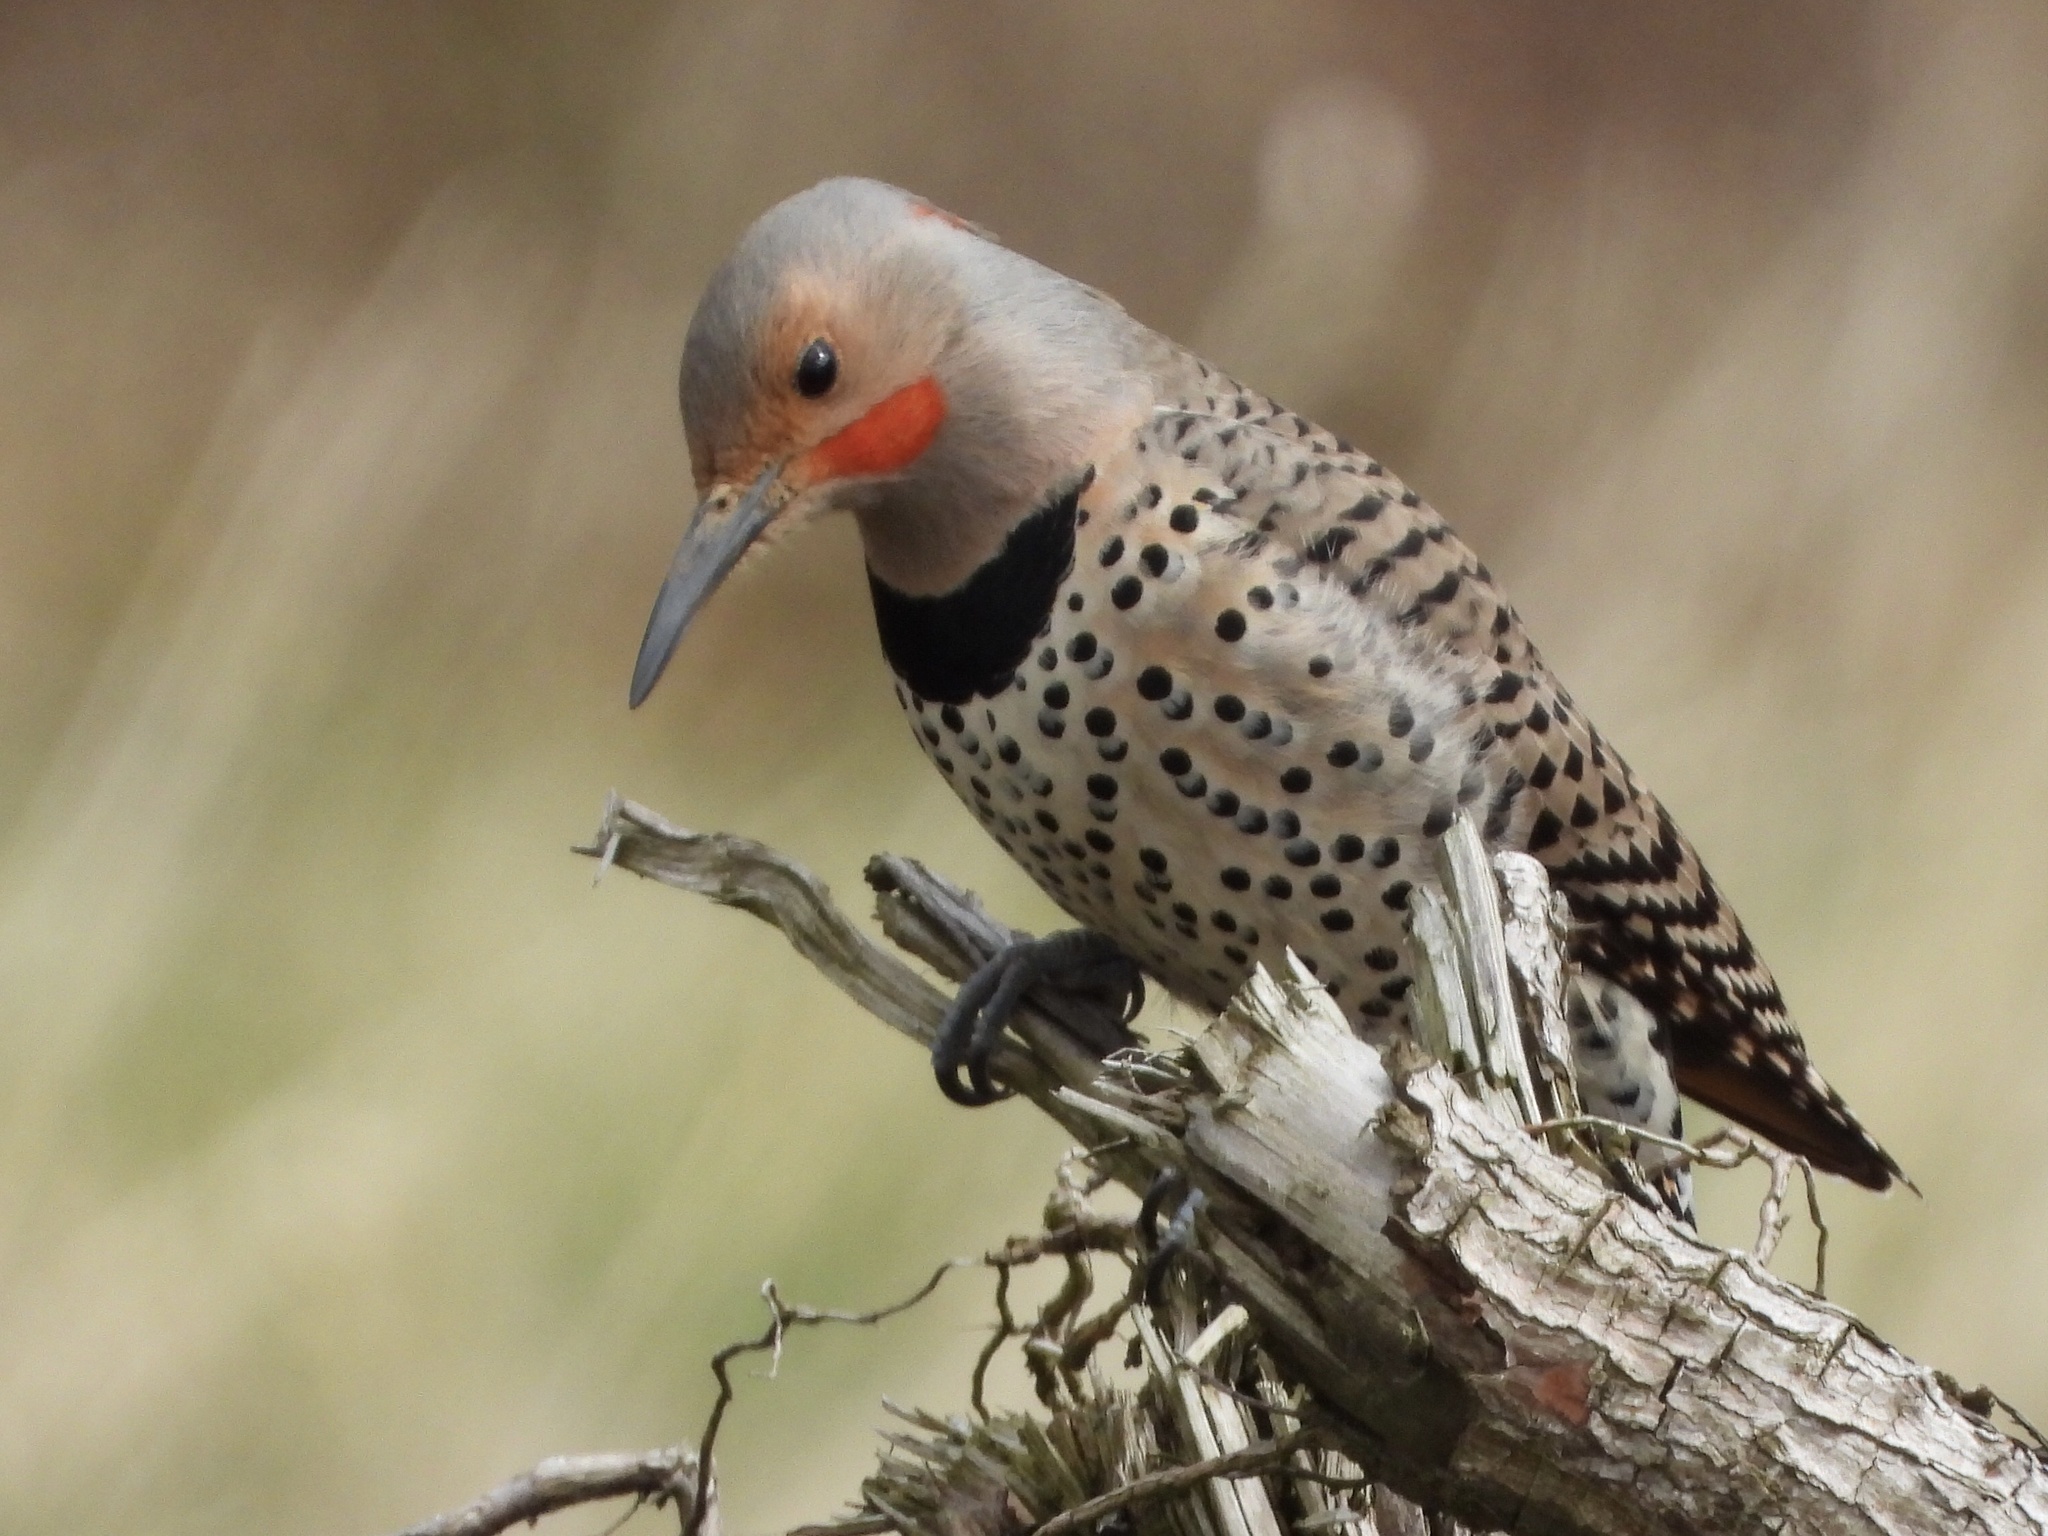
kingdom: Animalia
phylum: Chordata
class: Aves
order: Piciformes
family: Picidae
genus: Colaptes
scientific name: Colaptes
